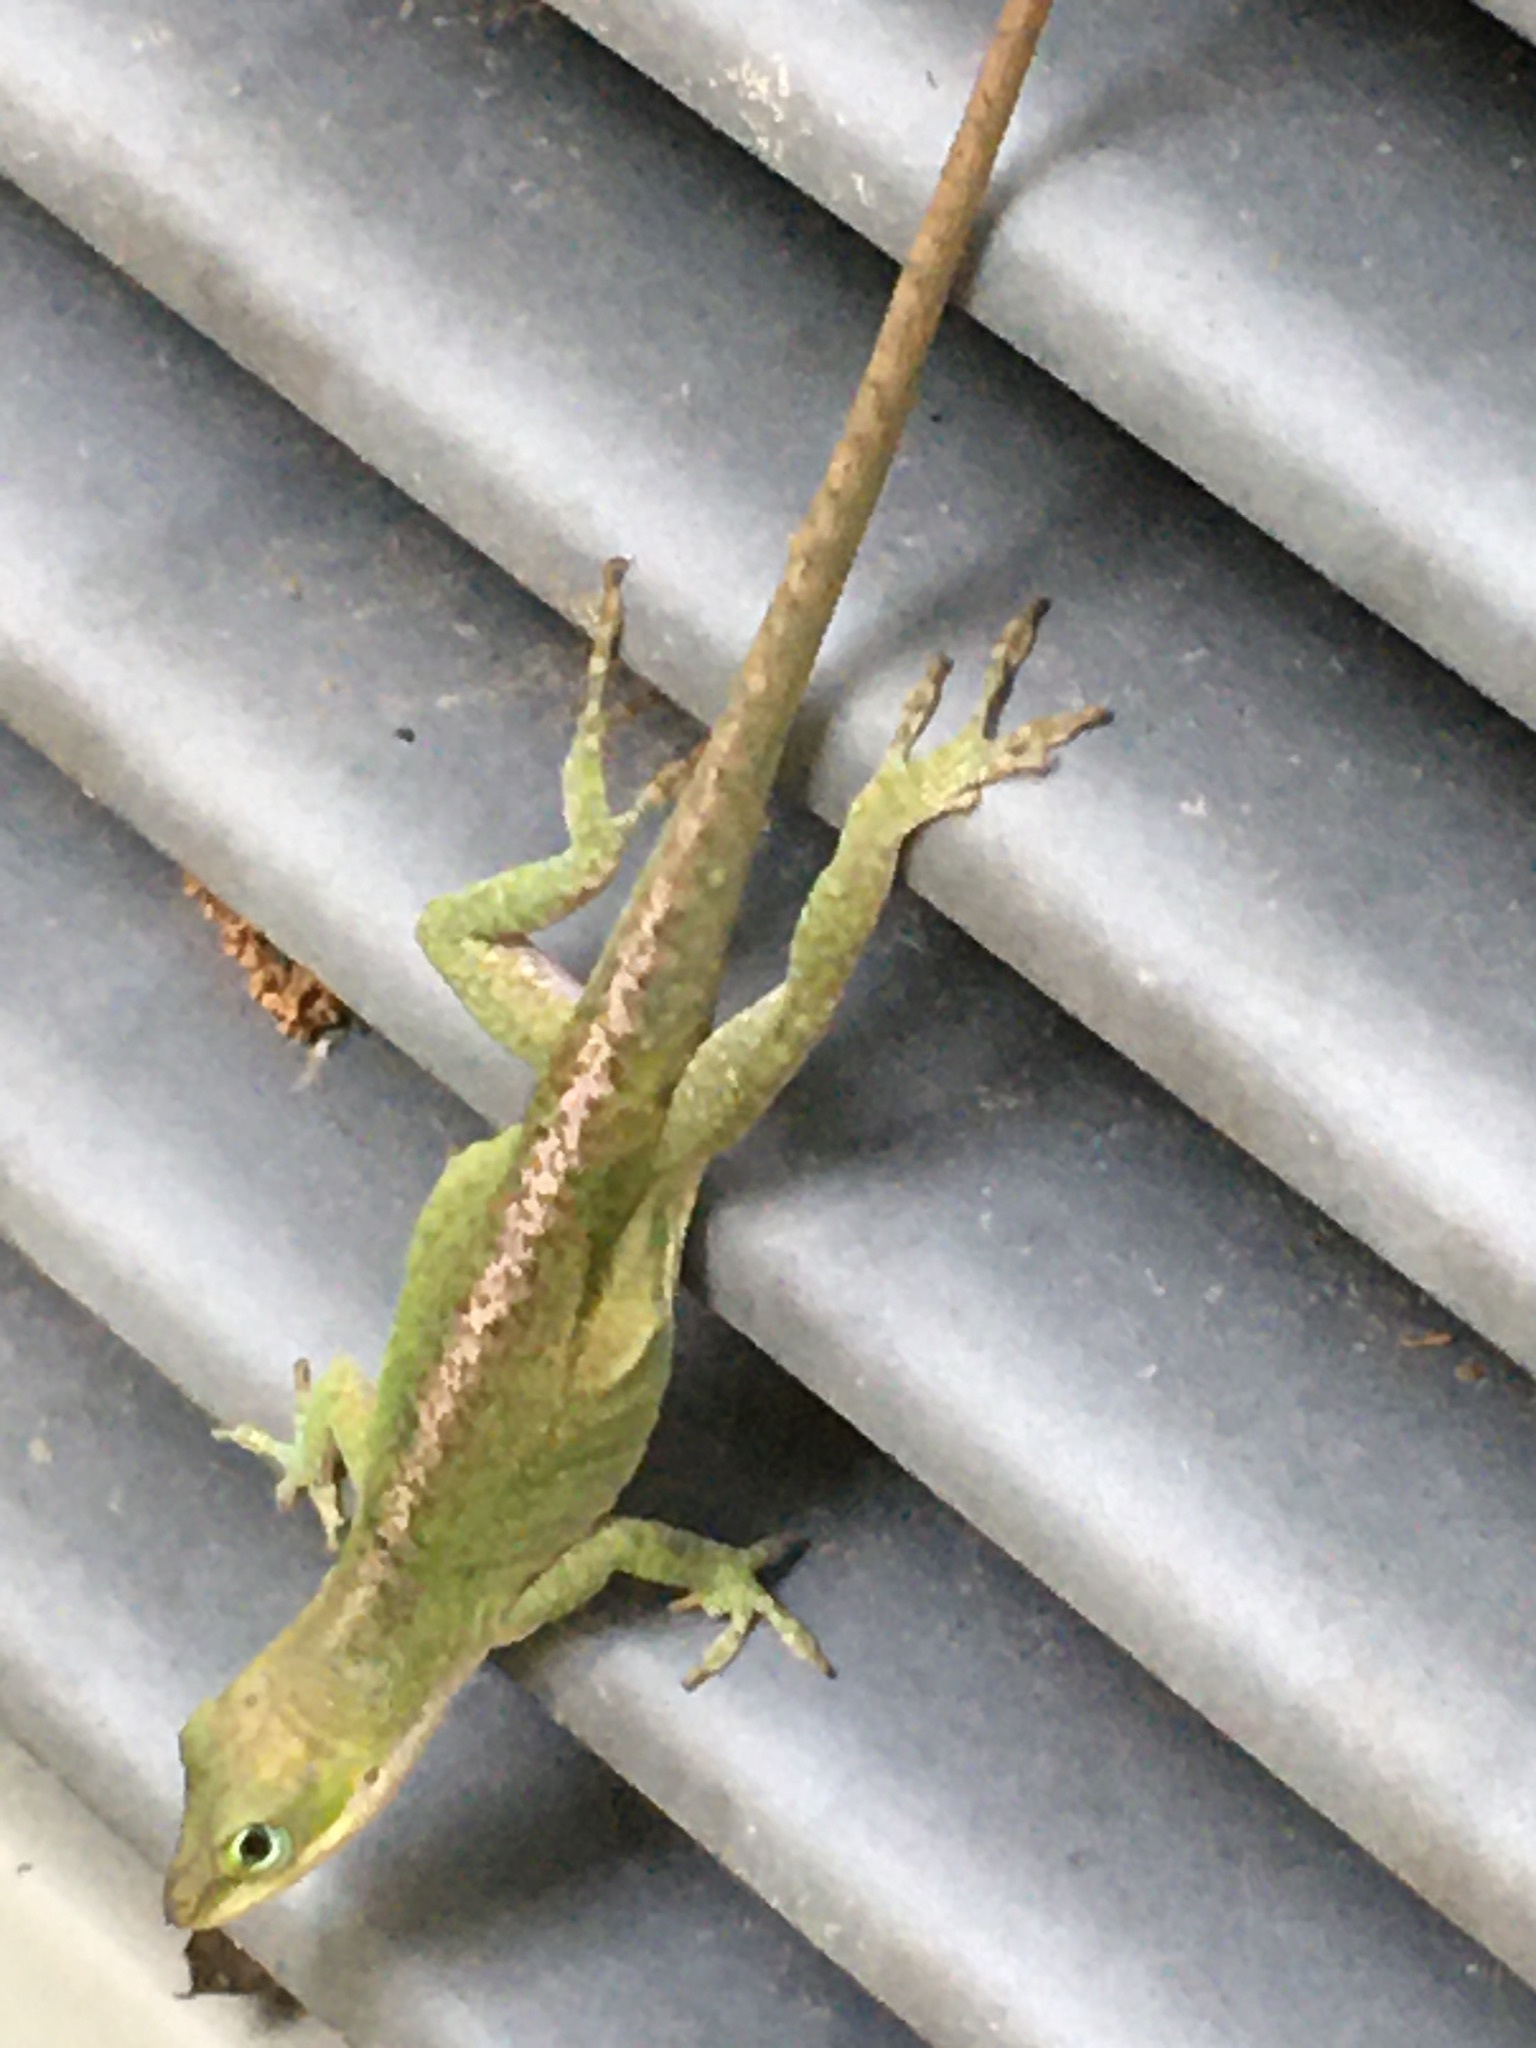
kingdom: Animalia
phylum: Chordata
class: Squamata
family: Dactyloidae
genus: Anolis
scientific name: Anolis carolinensis
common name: Green anole
